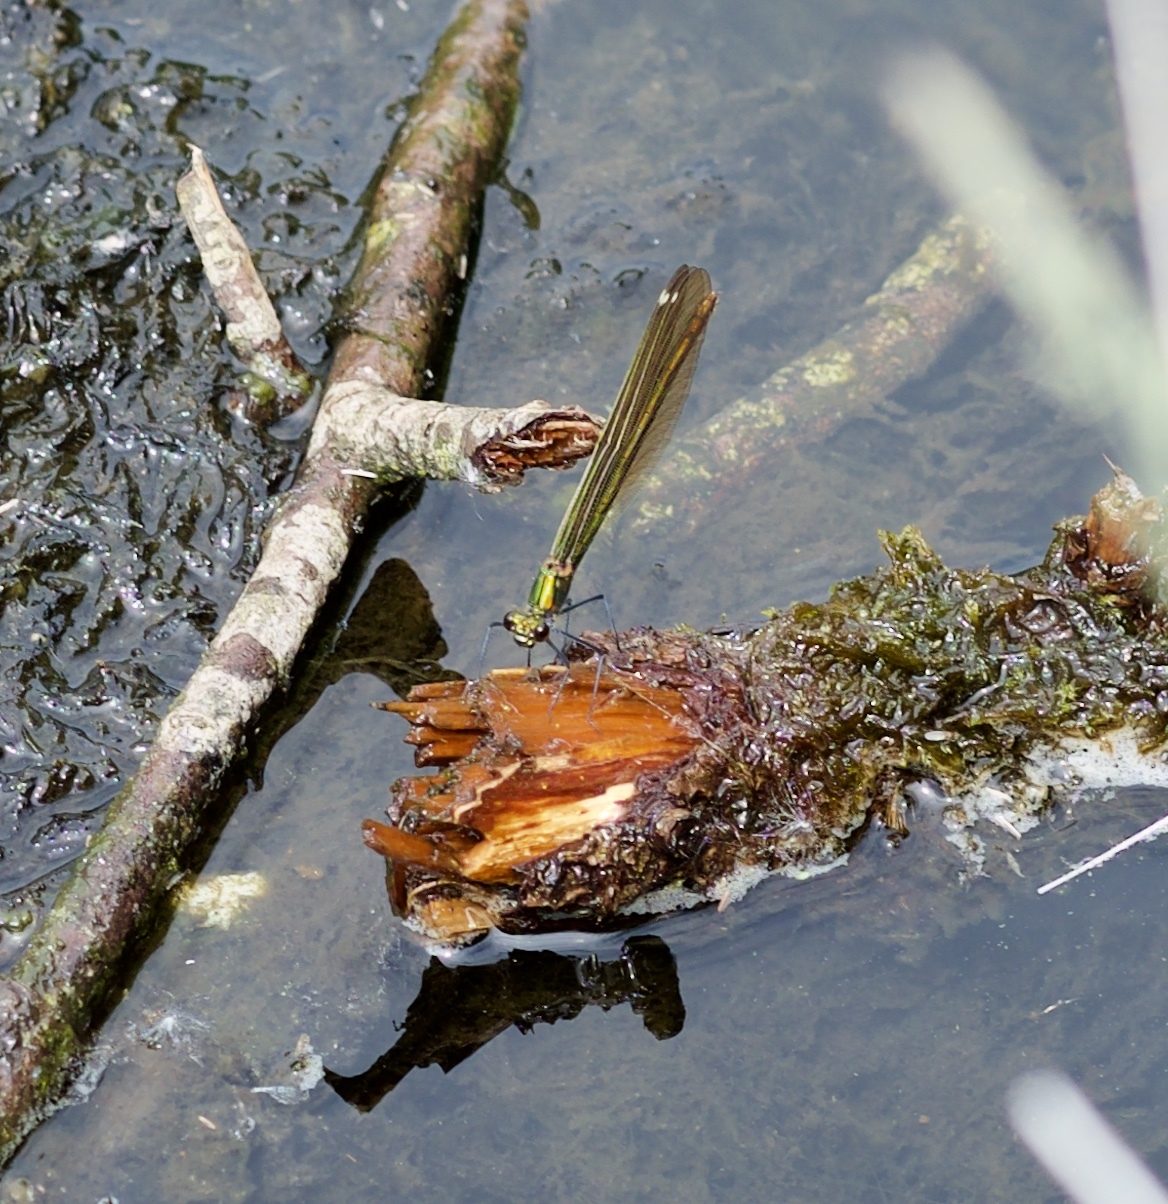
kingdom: Animalia
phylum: Arthropoda
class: Insecta
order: Odonata
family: Calopterygidae
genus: Calopteryx
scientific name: Calopteryx splendens
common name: Banded demoiselle
